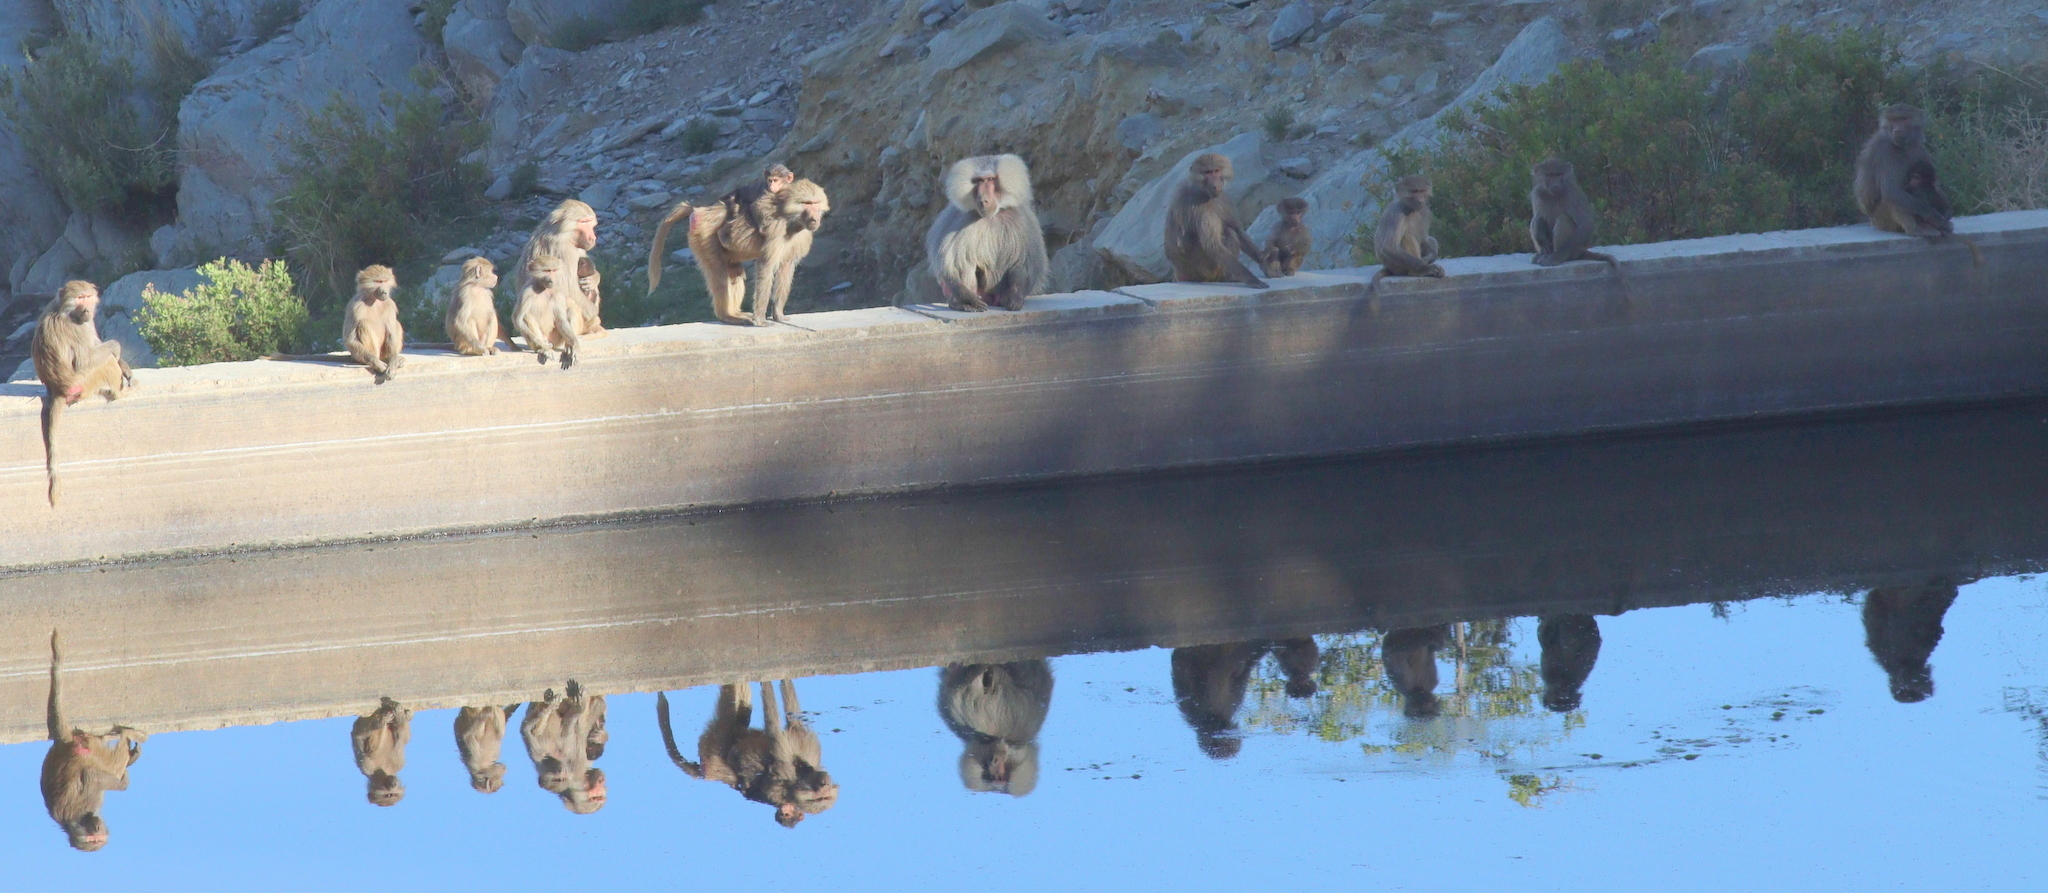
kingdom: Animalia
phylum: Chordata
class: Mammalia
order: Primates
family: Cercopithecidae
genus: Papio
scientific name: Papio hamadryas
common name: Hamadryas baboon
